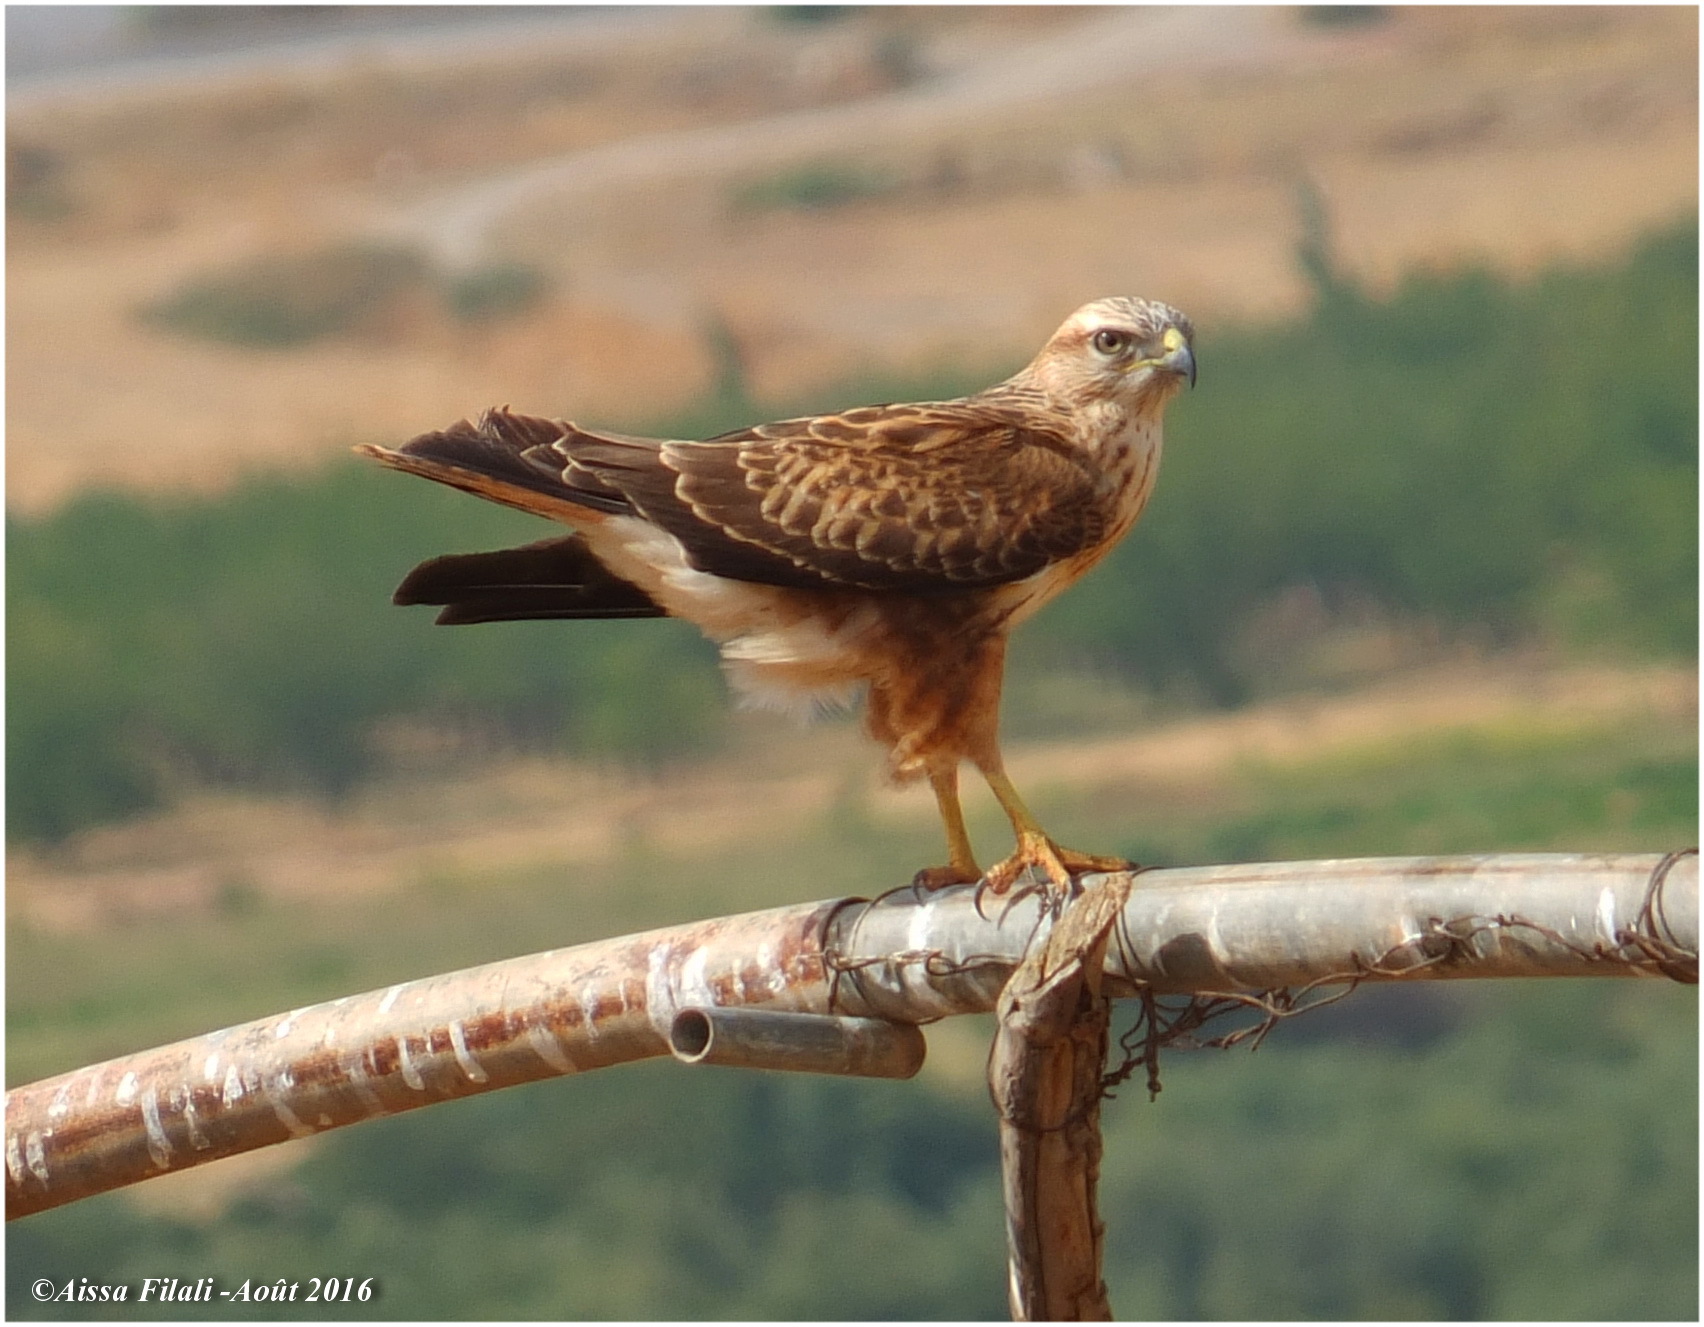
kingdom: Animalia
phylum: Chordata
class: Aves
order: Accipitriformes
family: Accipitridae
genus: Buteo
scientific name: Buteo rufinus
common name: Long-legged buzzard
